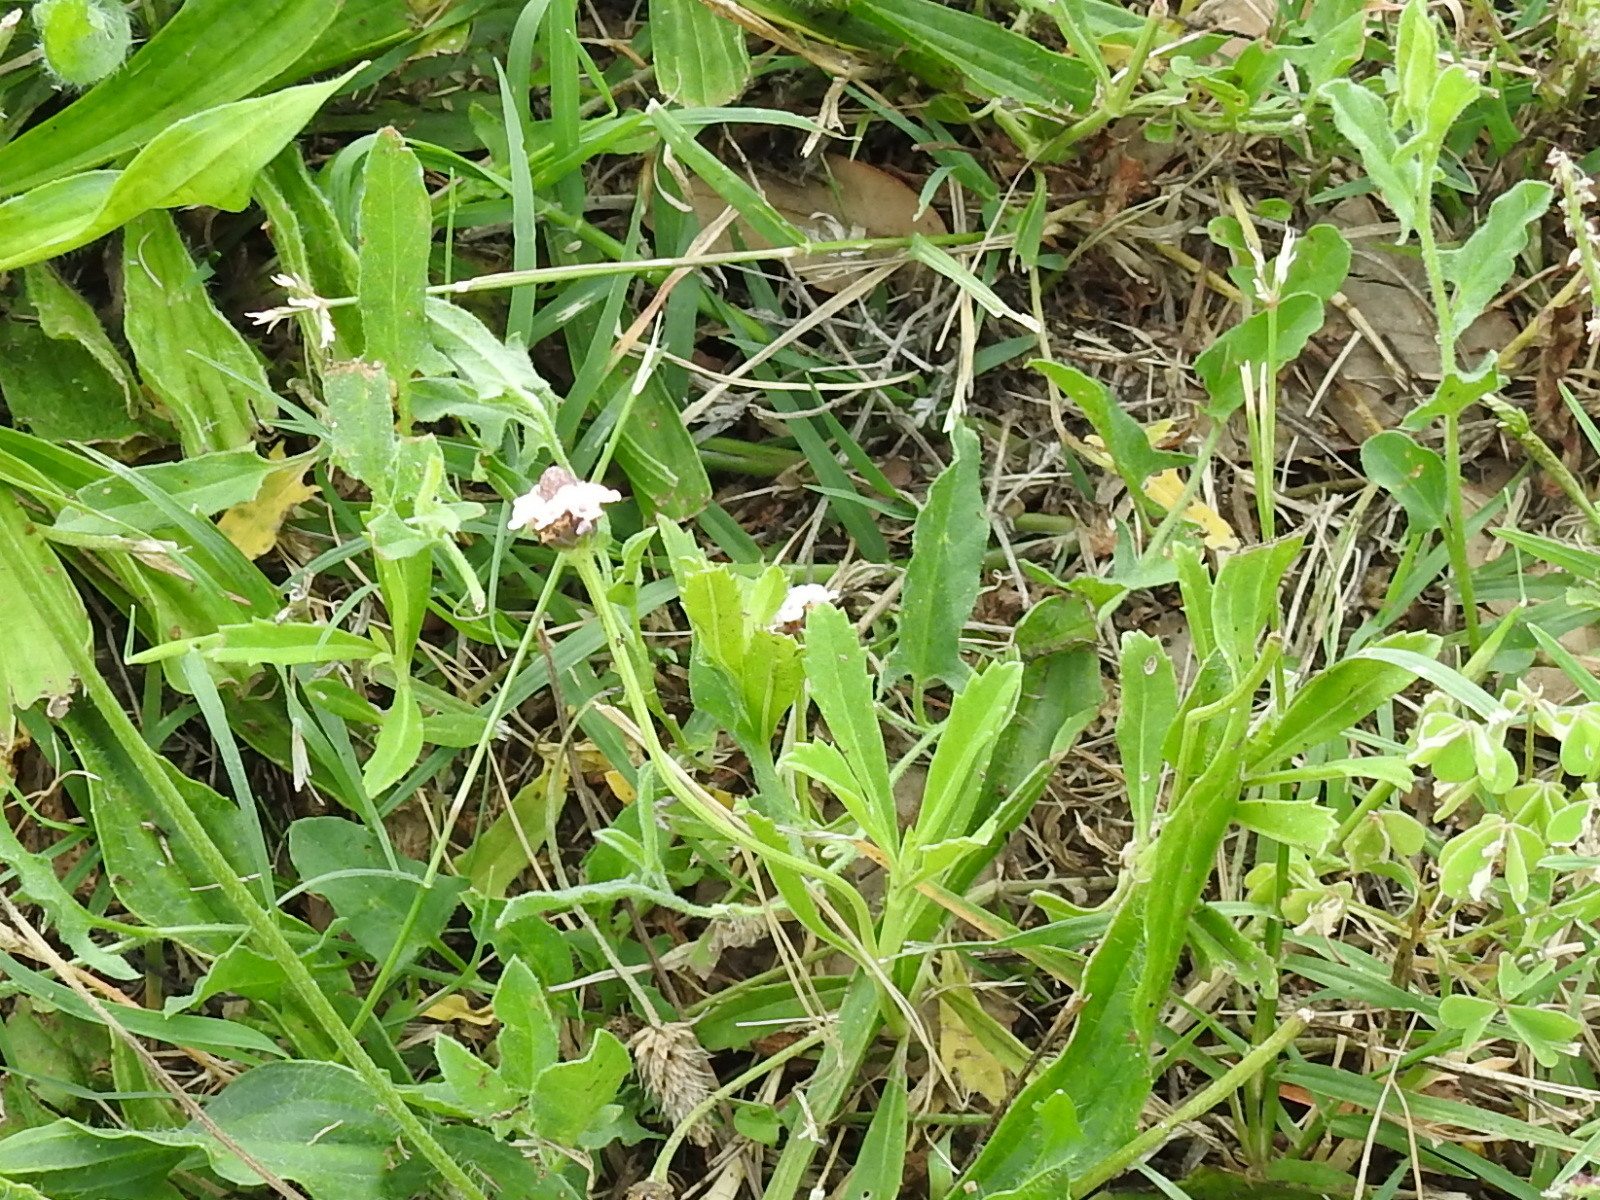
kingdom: Plantae
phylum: Tracheophyta
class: Magnoliopsida
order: Lamiales
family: Verbenaceae
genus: Phyla
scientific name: Phyla nodiflora
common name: Frogfruit
